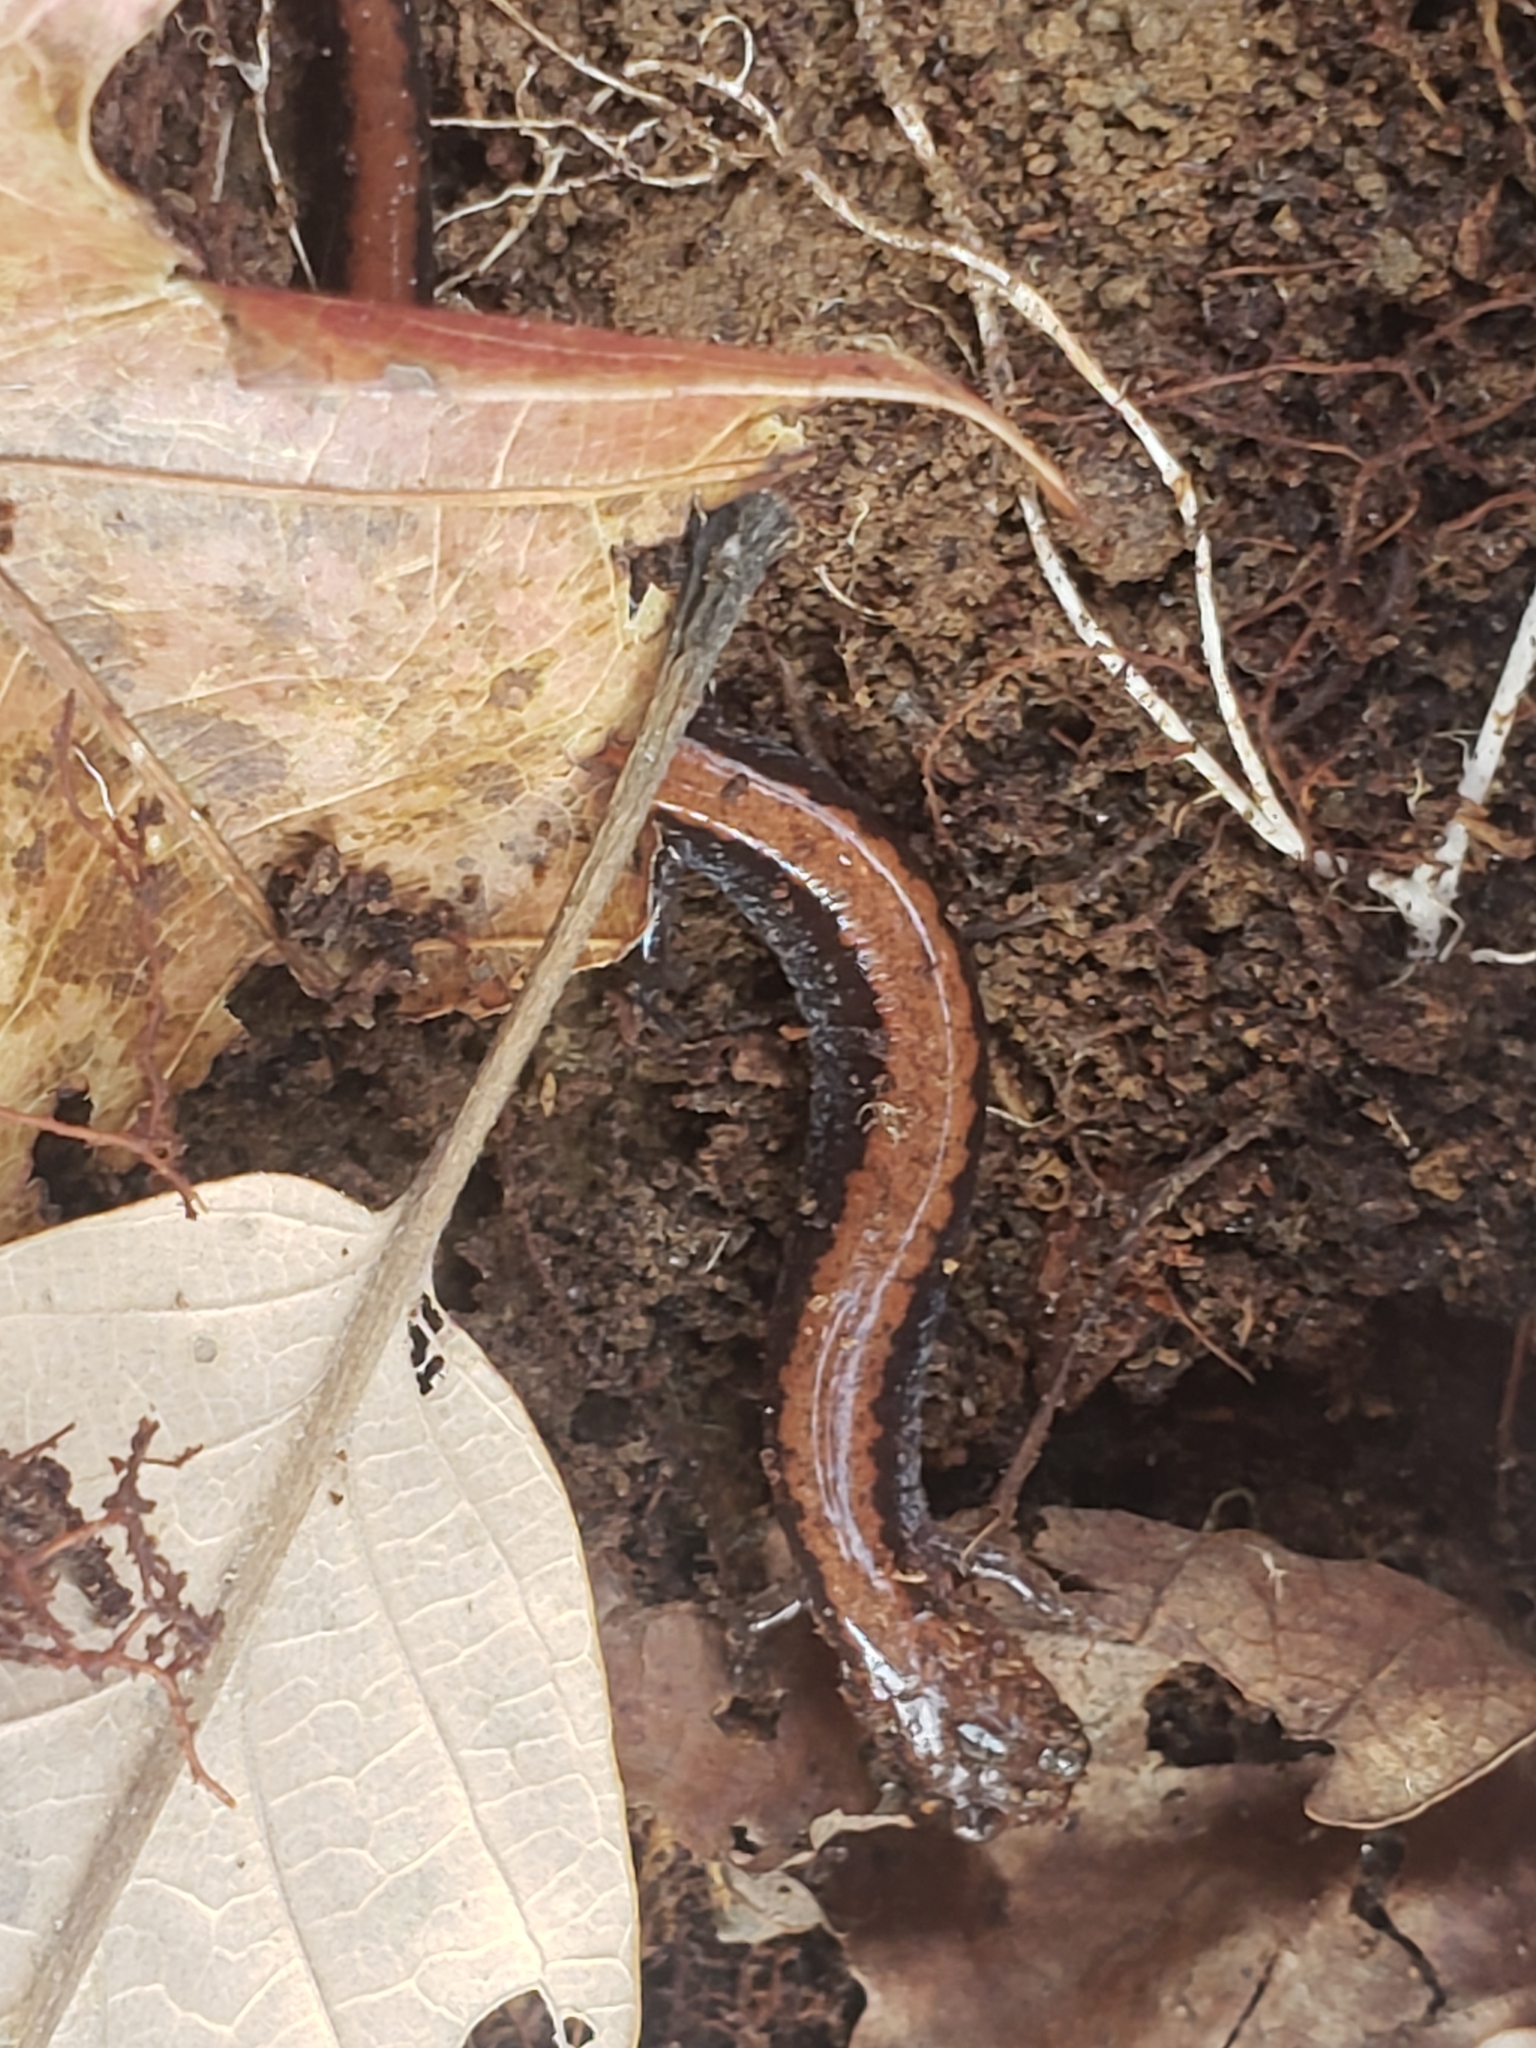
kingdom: Animalia
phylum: Chordata
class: Amphibia
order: Caudata
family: Plethodontidae
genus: Plethodon
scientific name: Plethodon cinereus
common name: Redback salamander
